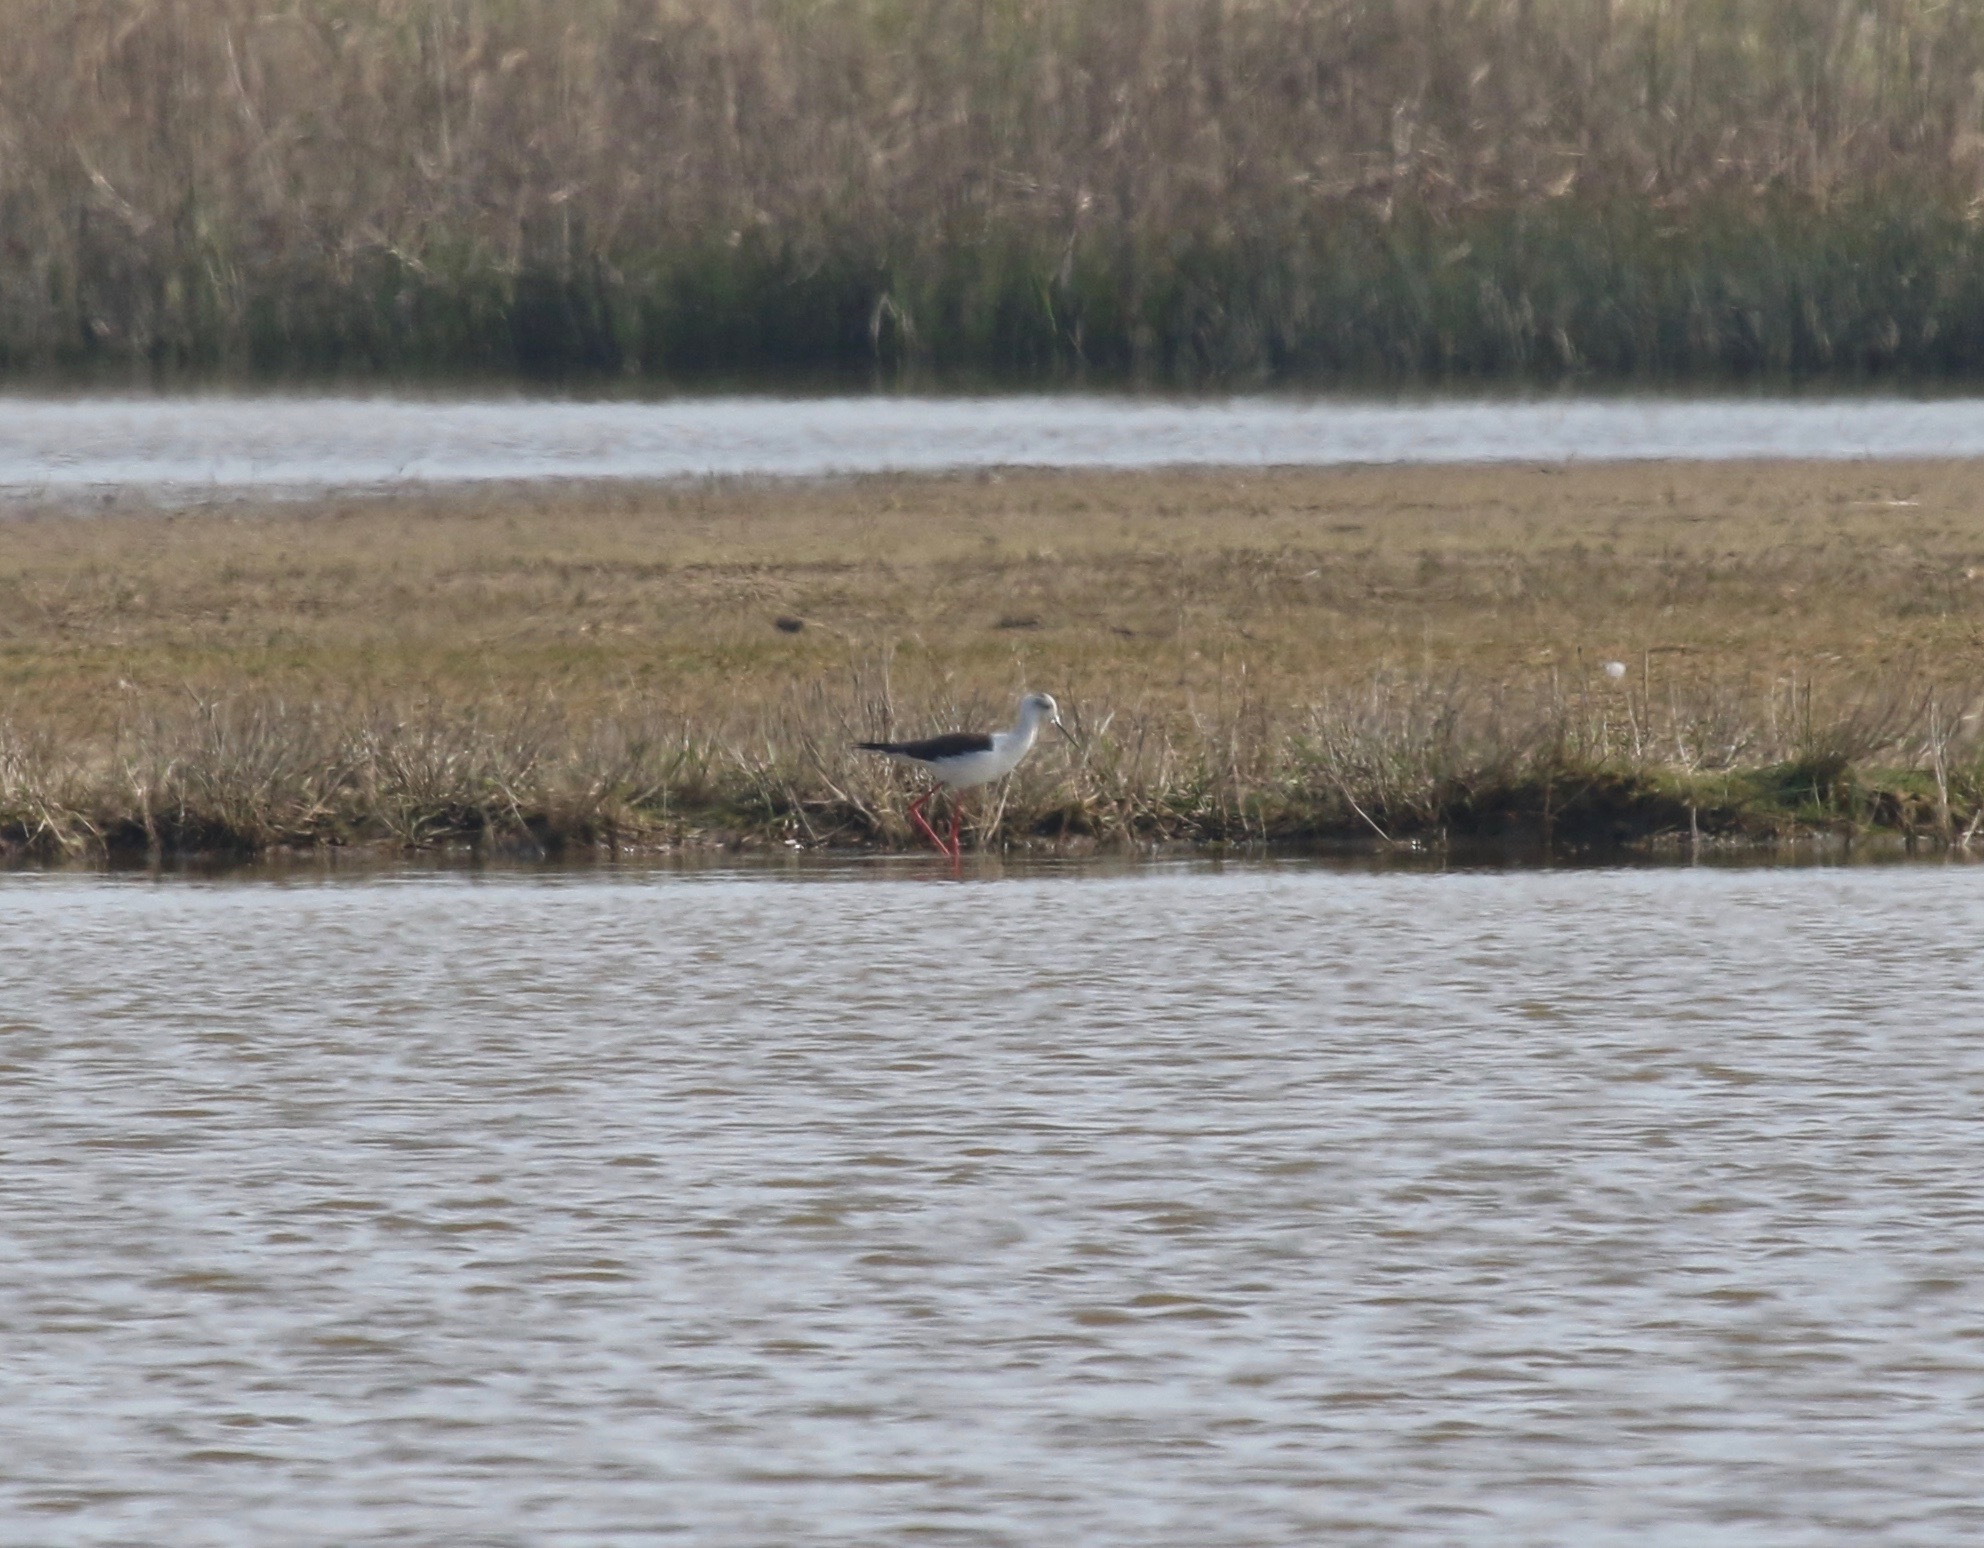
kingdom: Animalia
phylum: Chordata
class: Aves
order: Charadriiformes
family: Recurvirostridae
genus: Himantopus
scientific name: Himantopus himantopus
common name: Black-winged stilt
